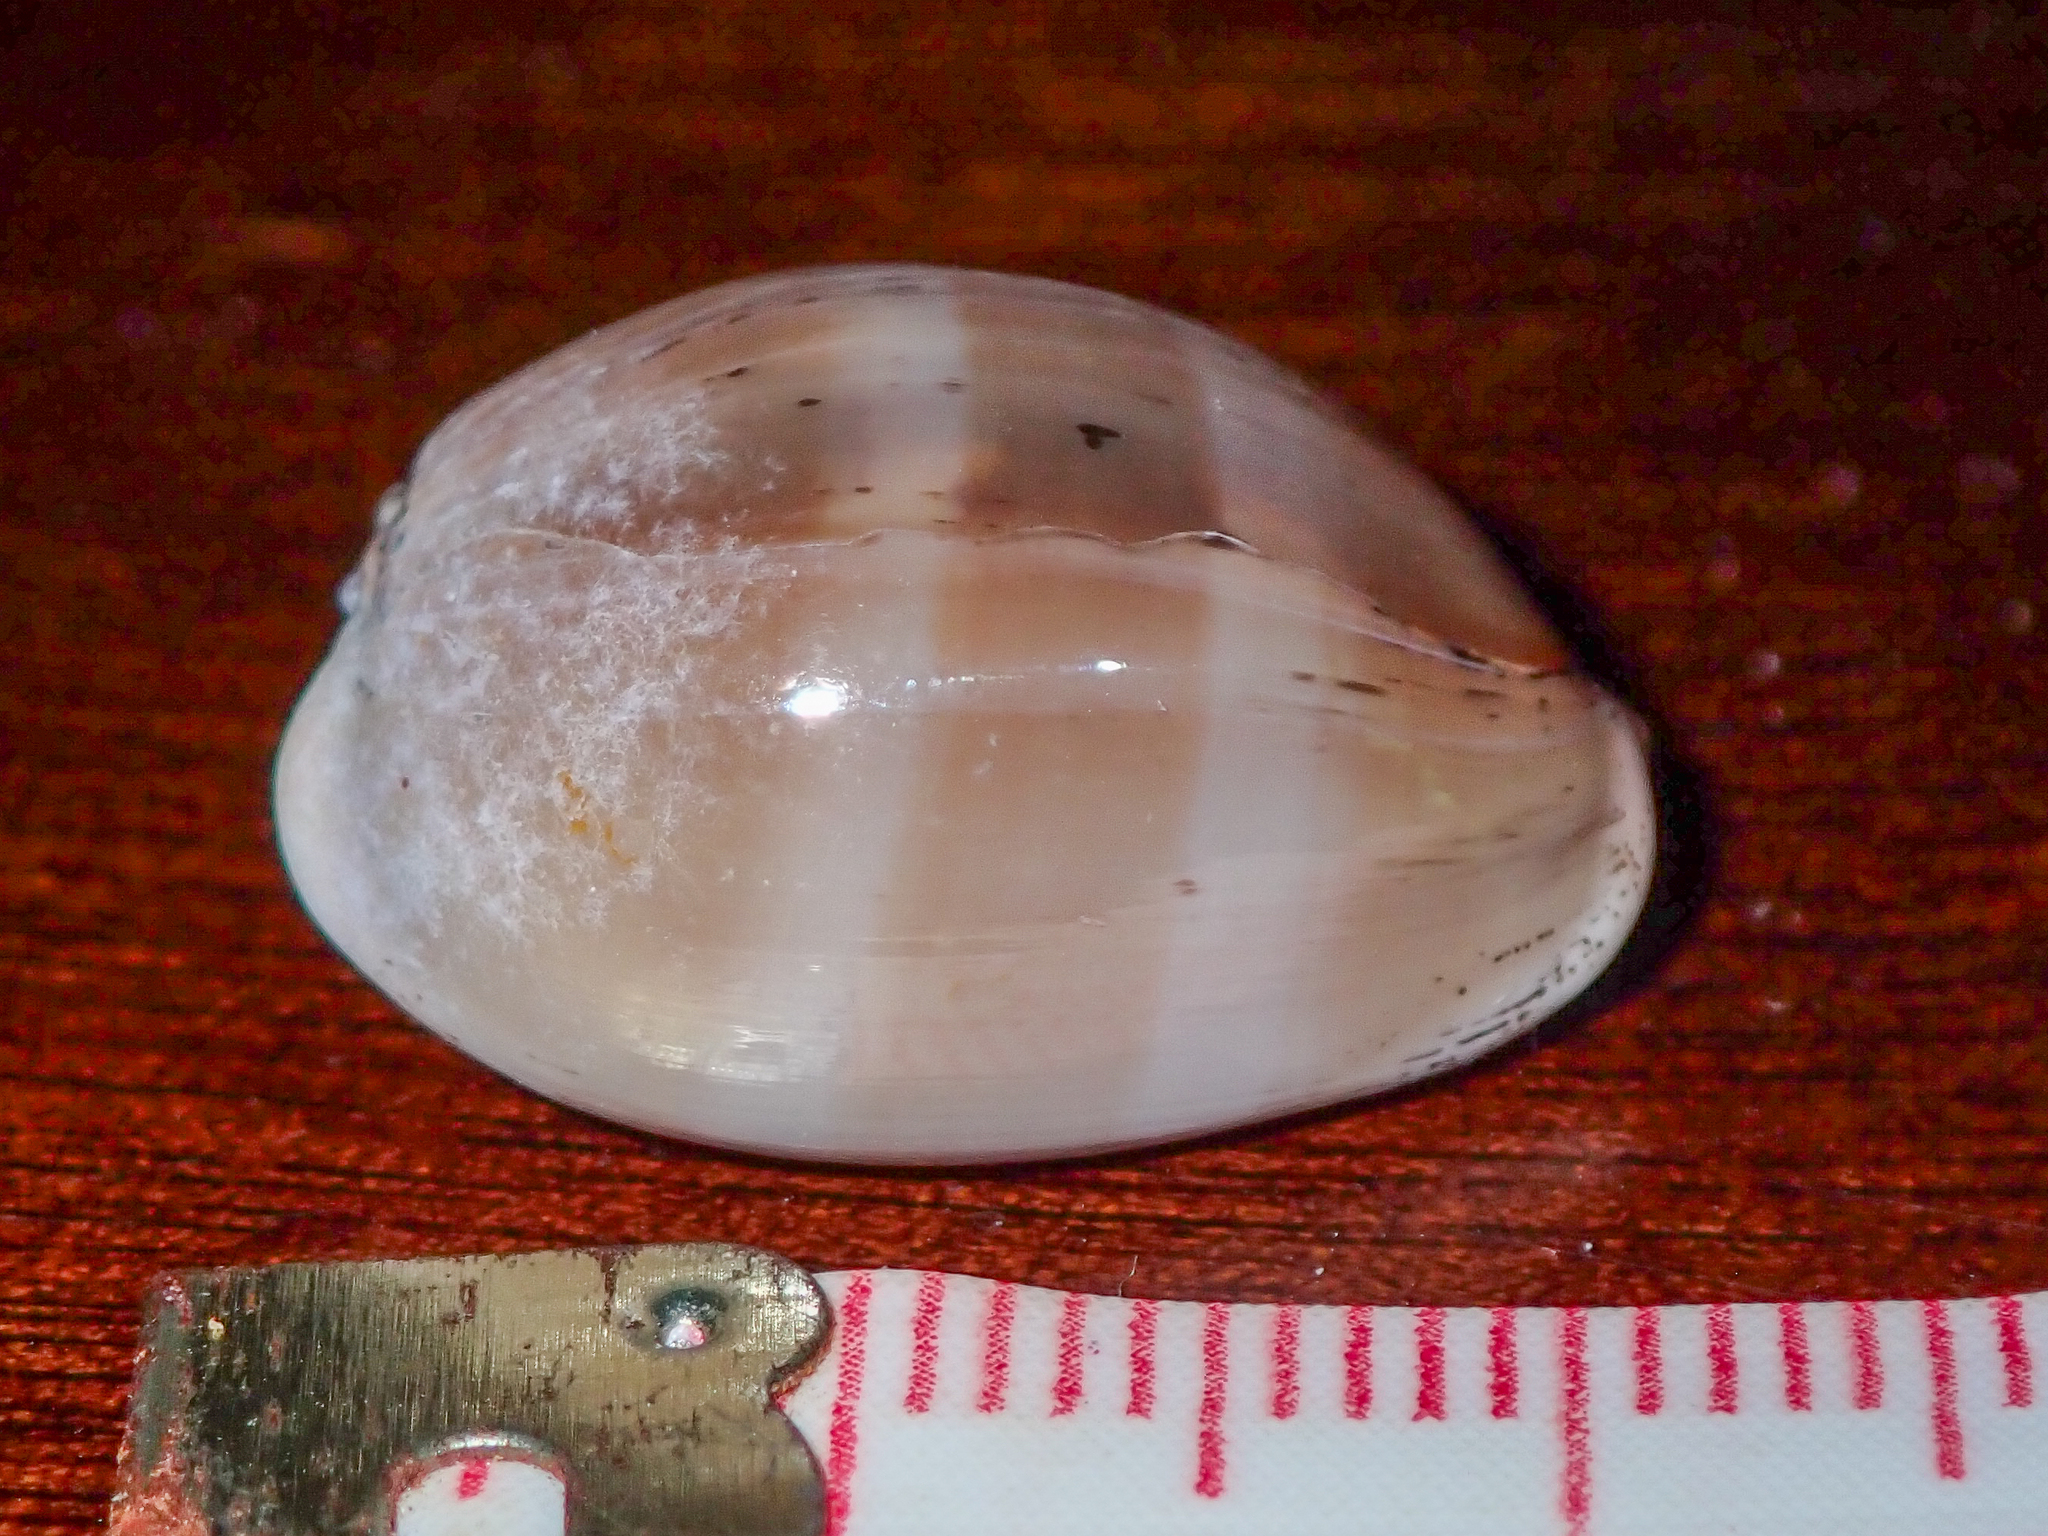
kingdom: Animalia
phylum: Mollusca
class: Gastropoda
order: Littorinimorpha
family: Cypraeidae
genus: Luria
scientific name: Luria cinerea
